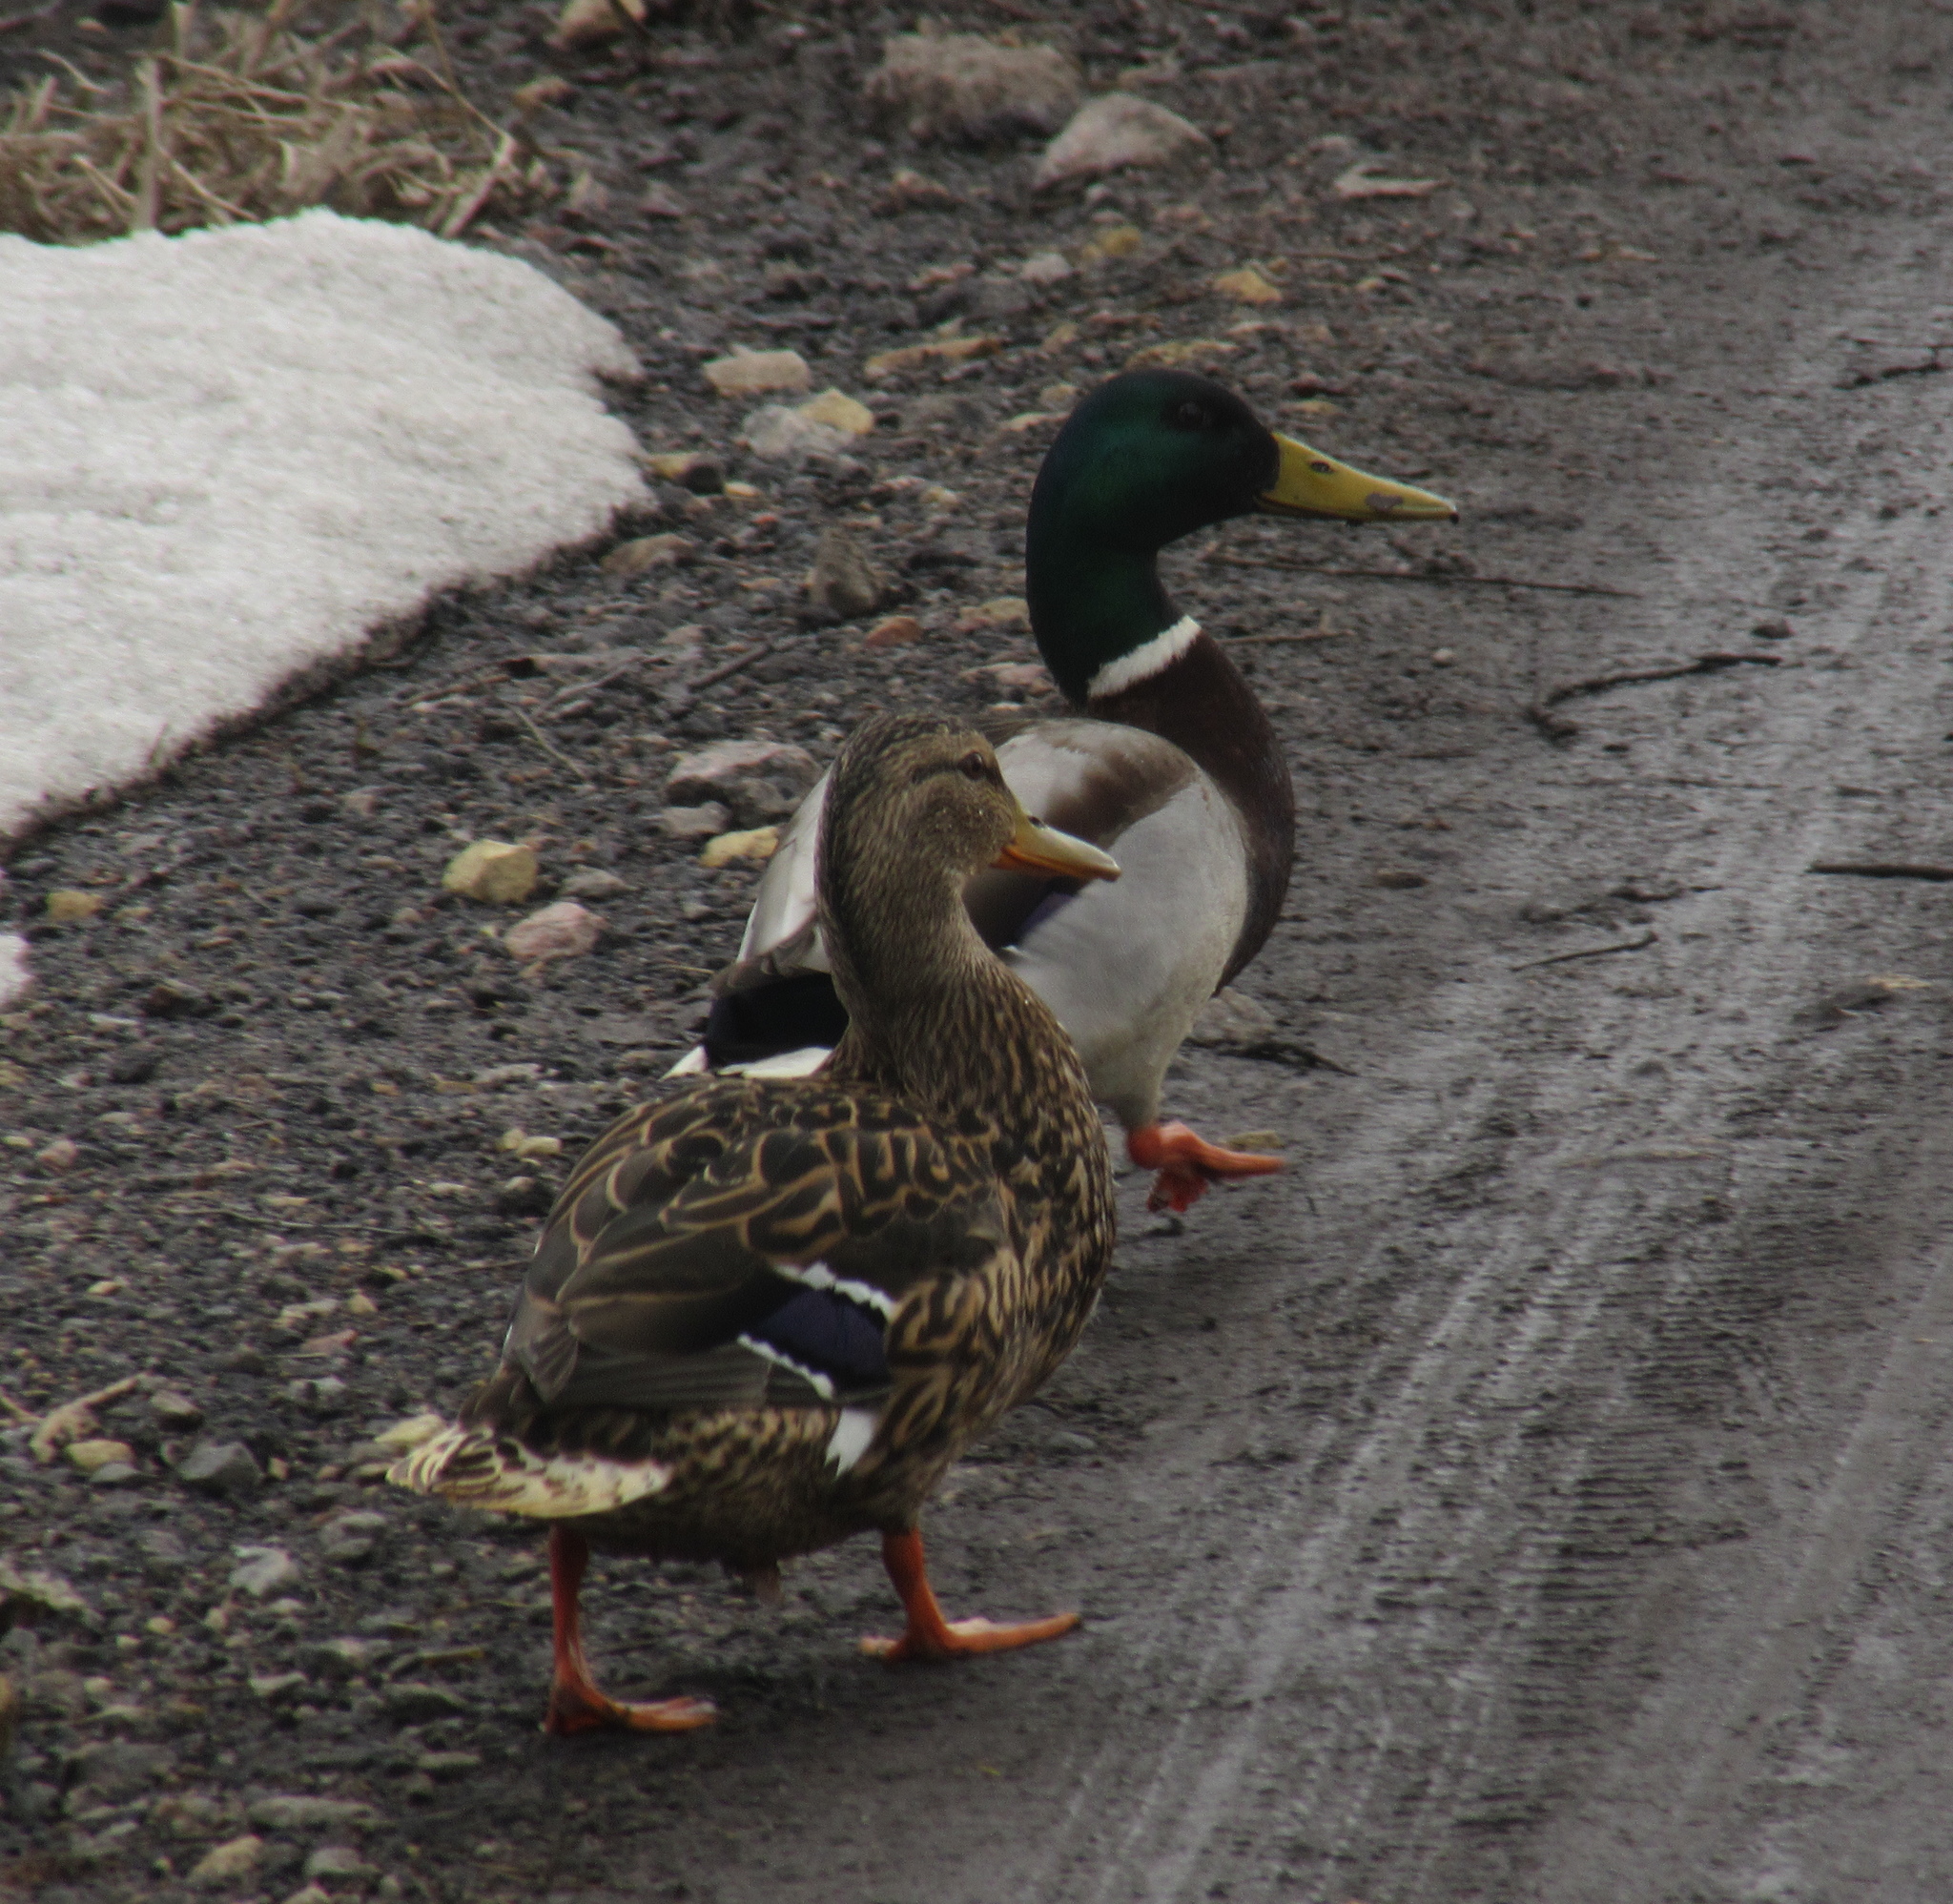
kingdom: Animalia
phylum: Chordata
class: Aves
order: Anseriformes
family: Anatidae
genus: Anas
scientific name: Anas platyrhynchos
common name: Mallard
